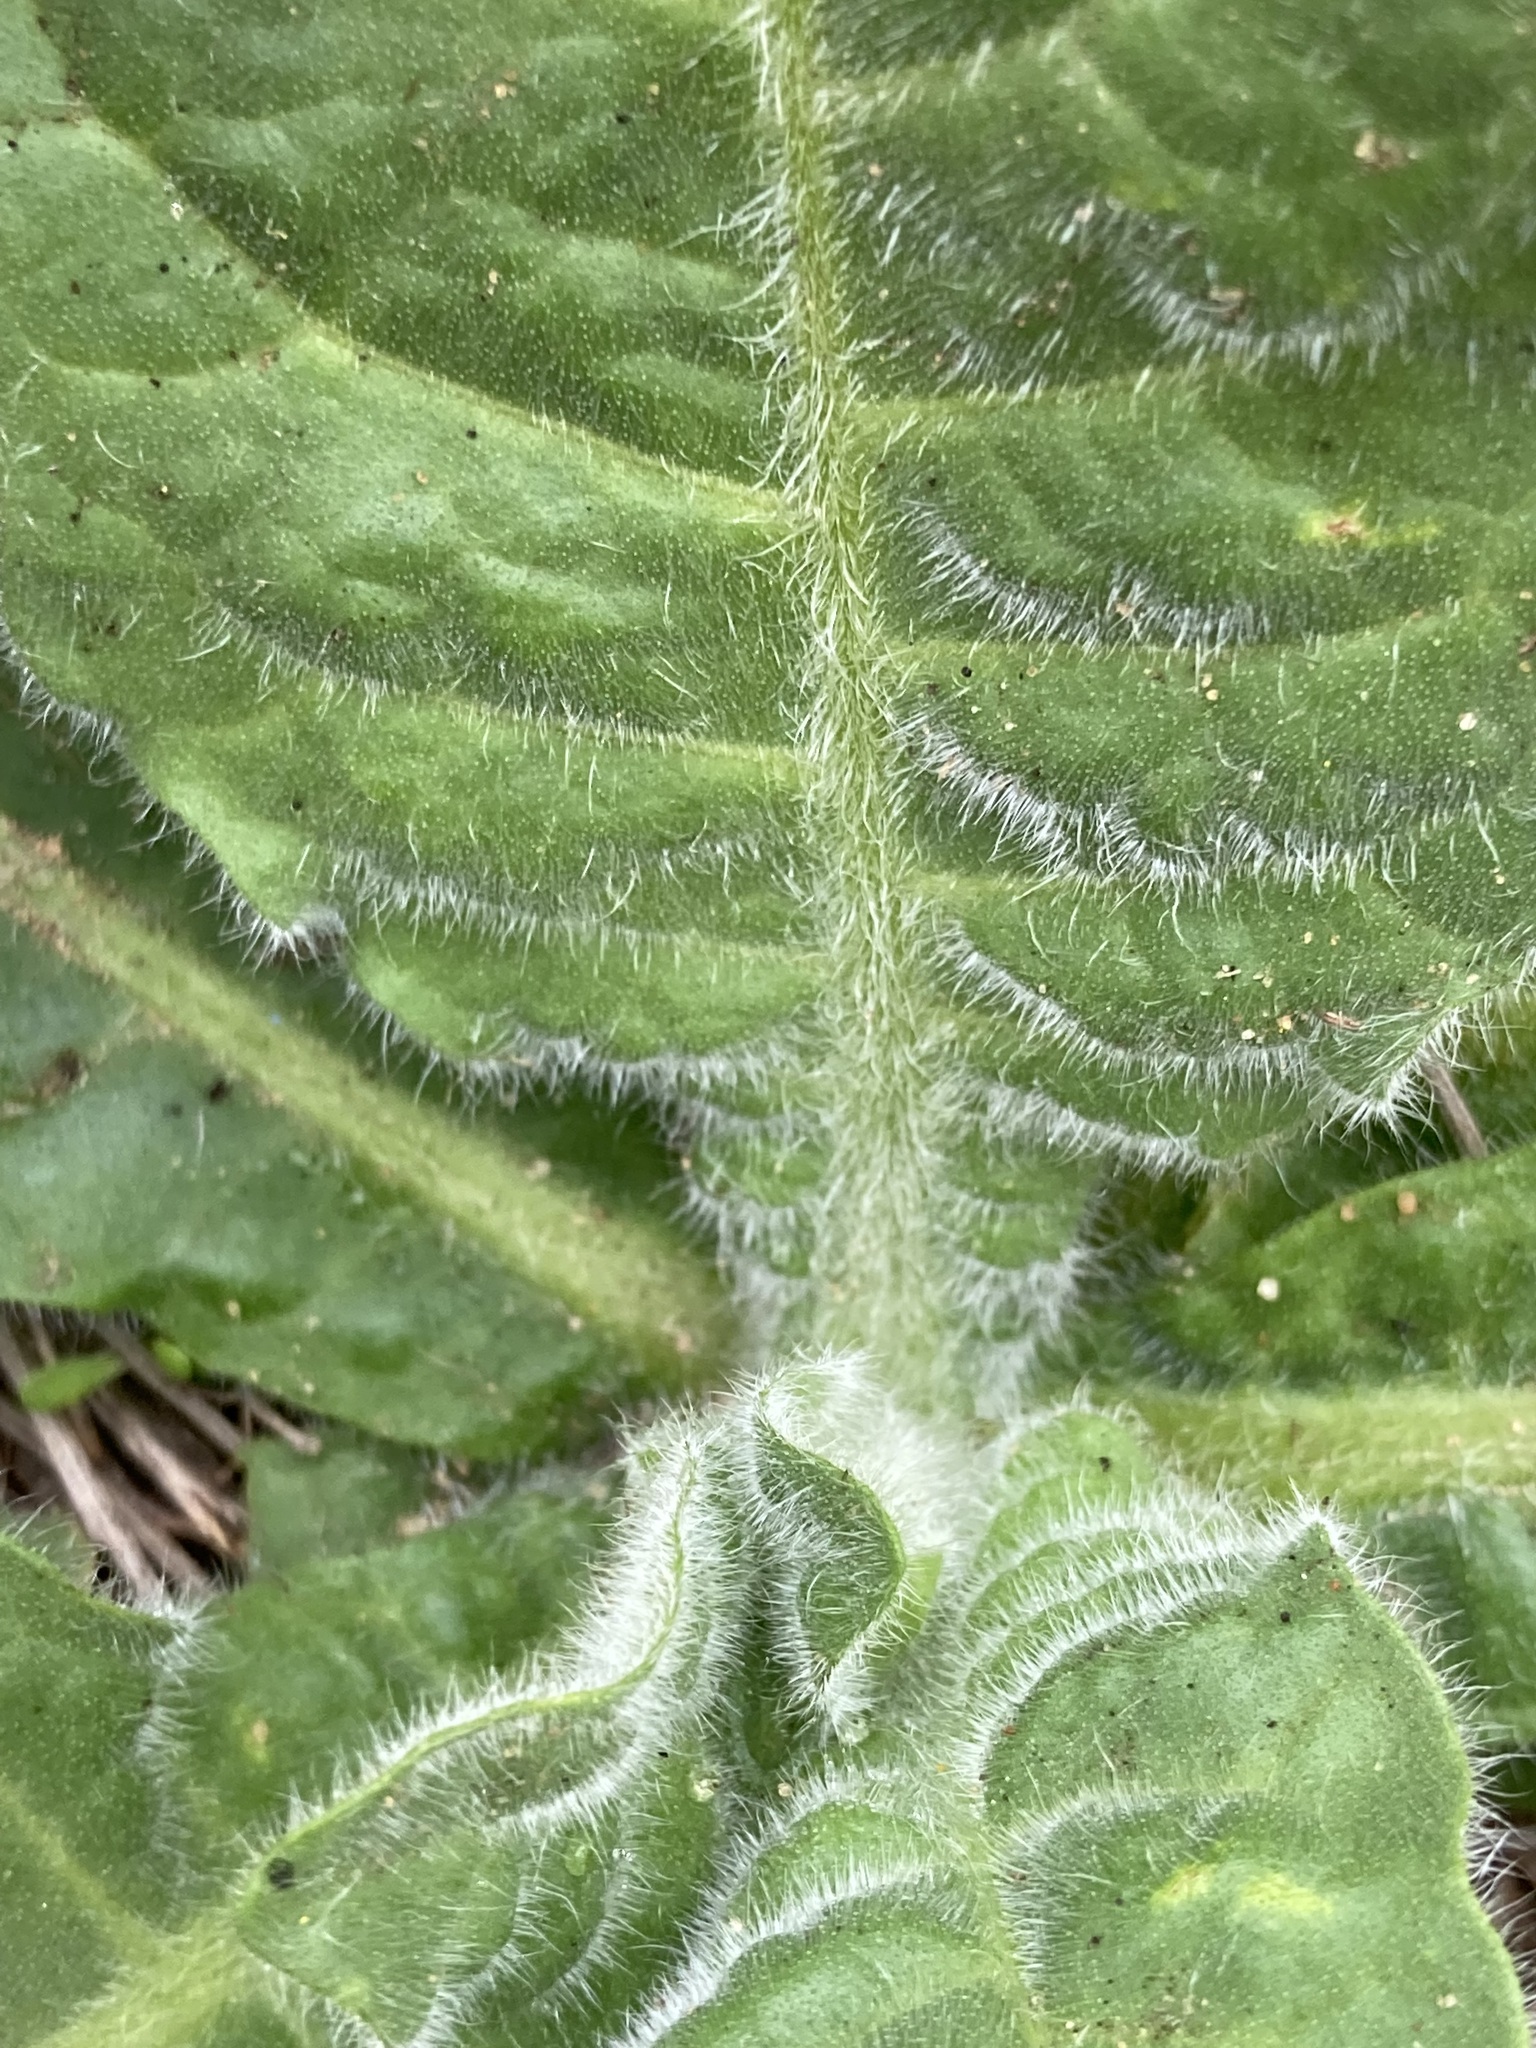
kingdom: Plantae
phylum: Tracheophyta
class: Magnoliopsida
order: Solanales
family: Solanaceae
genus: Nicotiana
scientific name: Nicotiana rotundifolia
